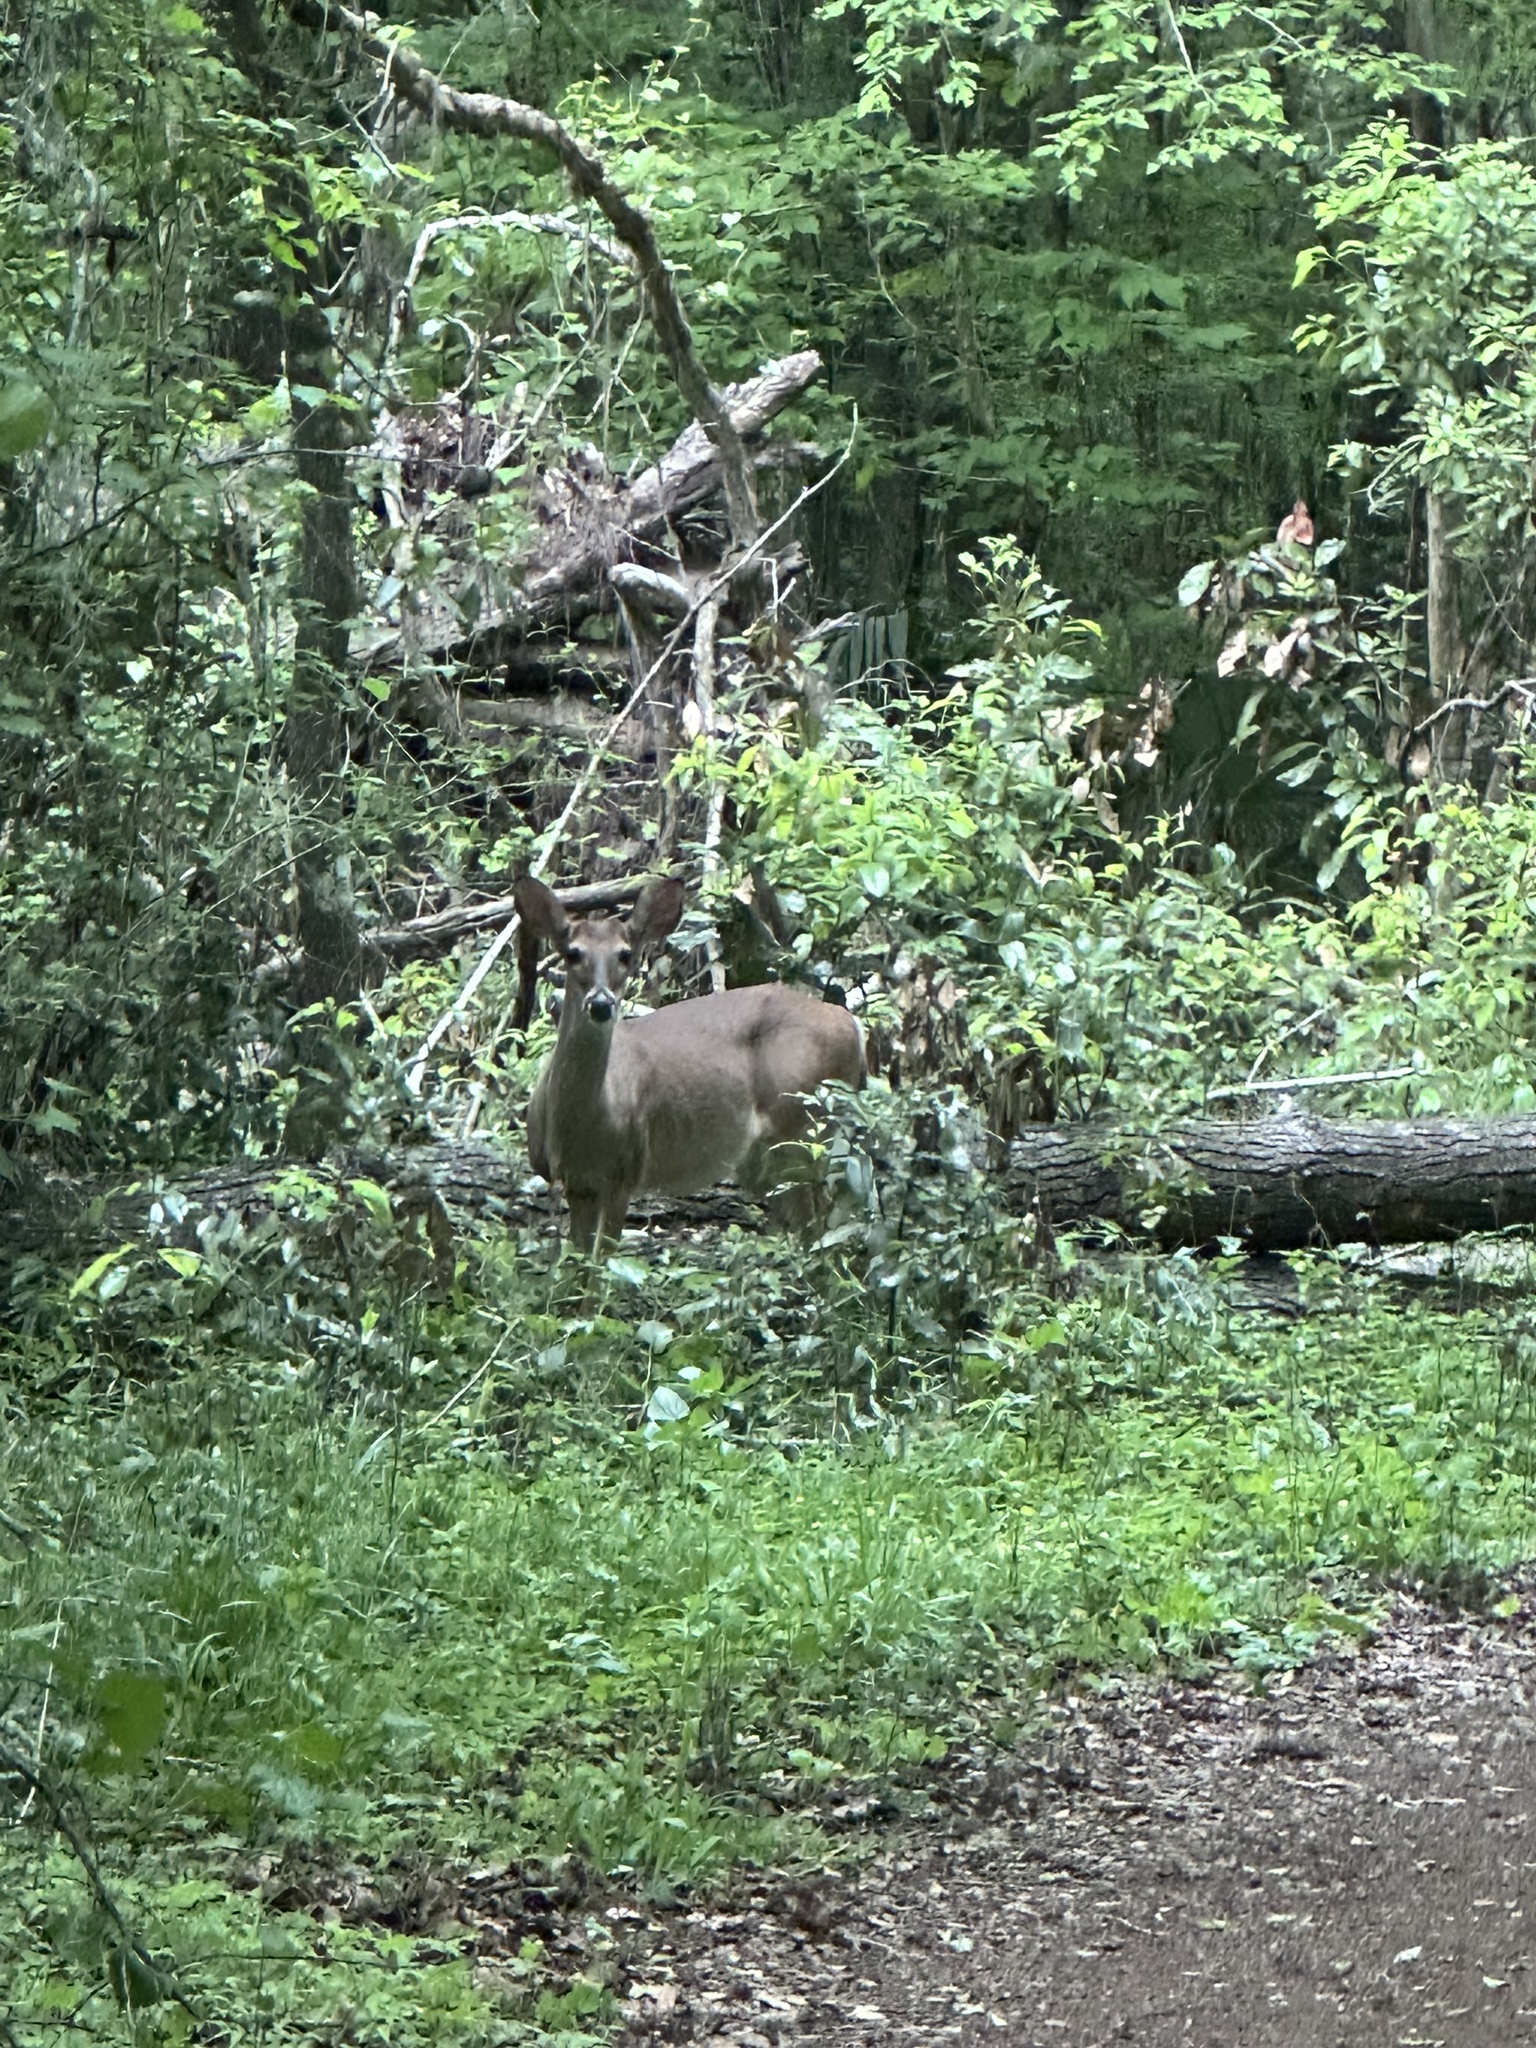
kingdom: Animalia
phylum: Chordata
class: Mammalia
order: Artiodactyla
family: Cervidae
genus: Odocoileus
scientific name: Odocoileus virginianus
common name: White-tailed deer
